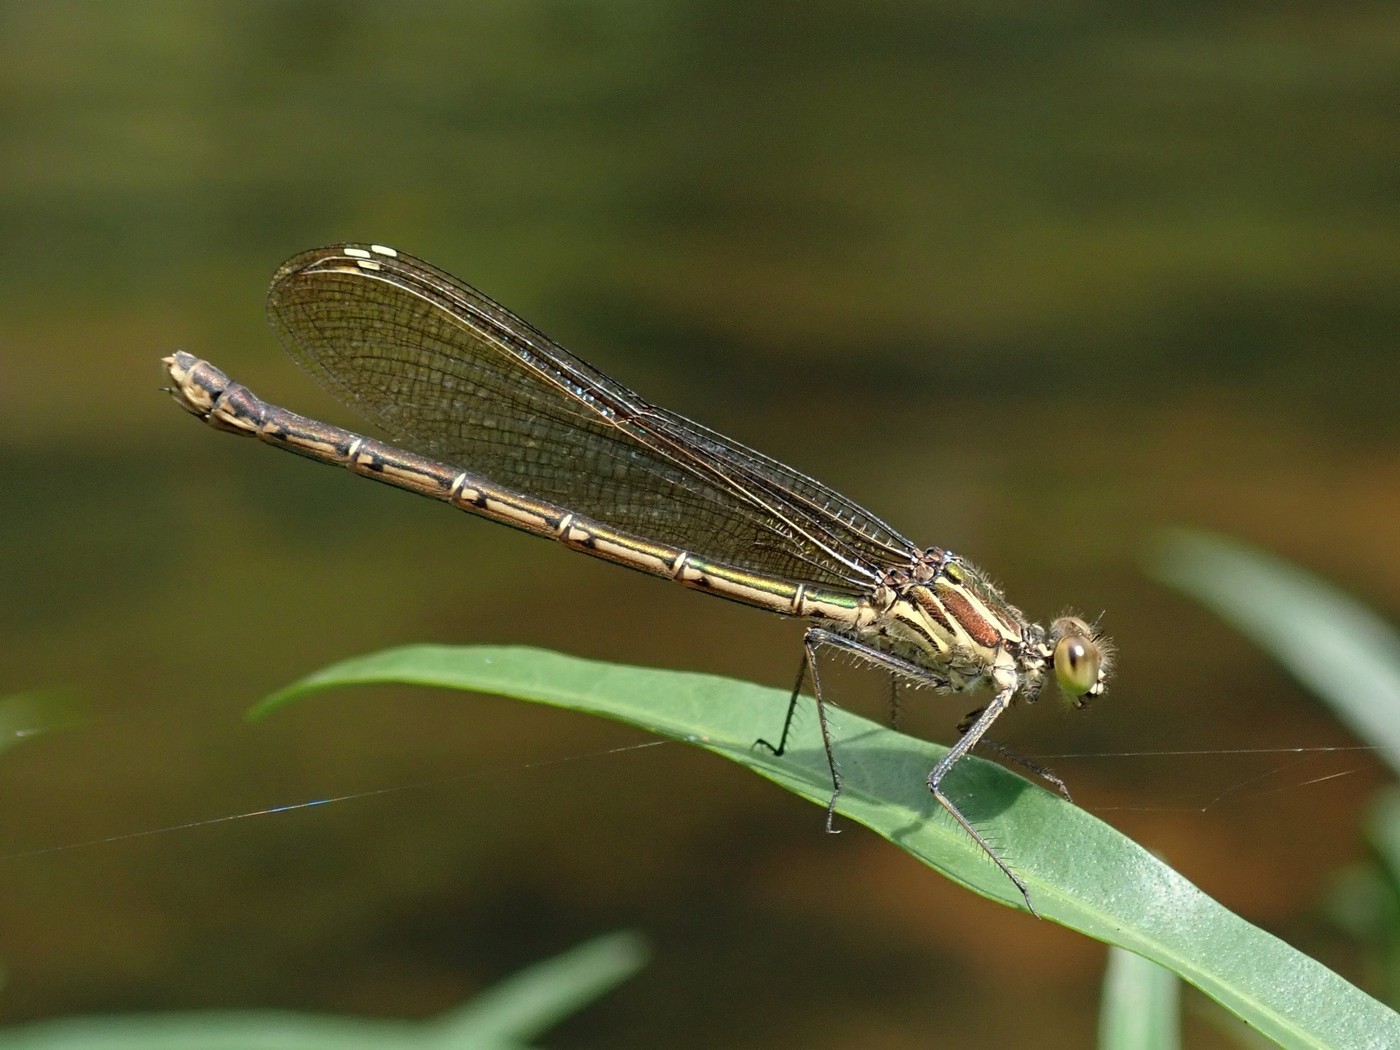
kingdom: Animalia
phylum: Arthropoda
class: Insecta
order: Odonata
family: Calopterygidae
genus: Hetaerina
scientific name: Hetaerina americana
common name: American rubyspot
